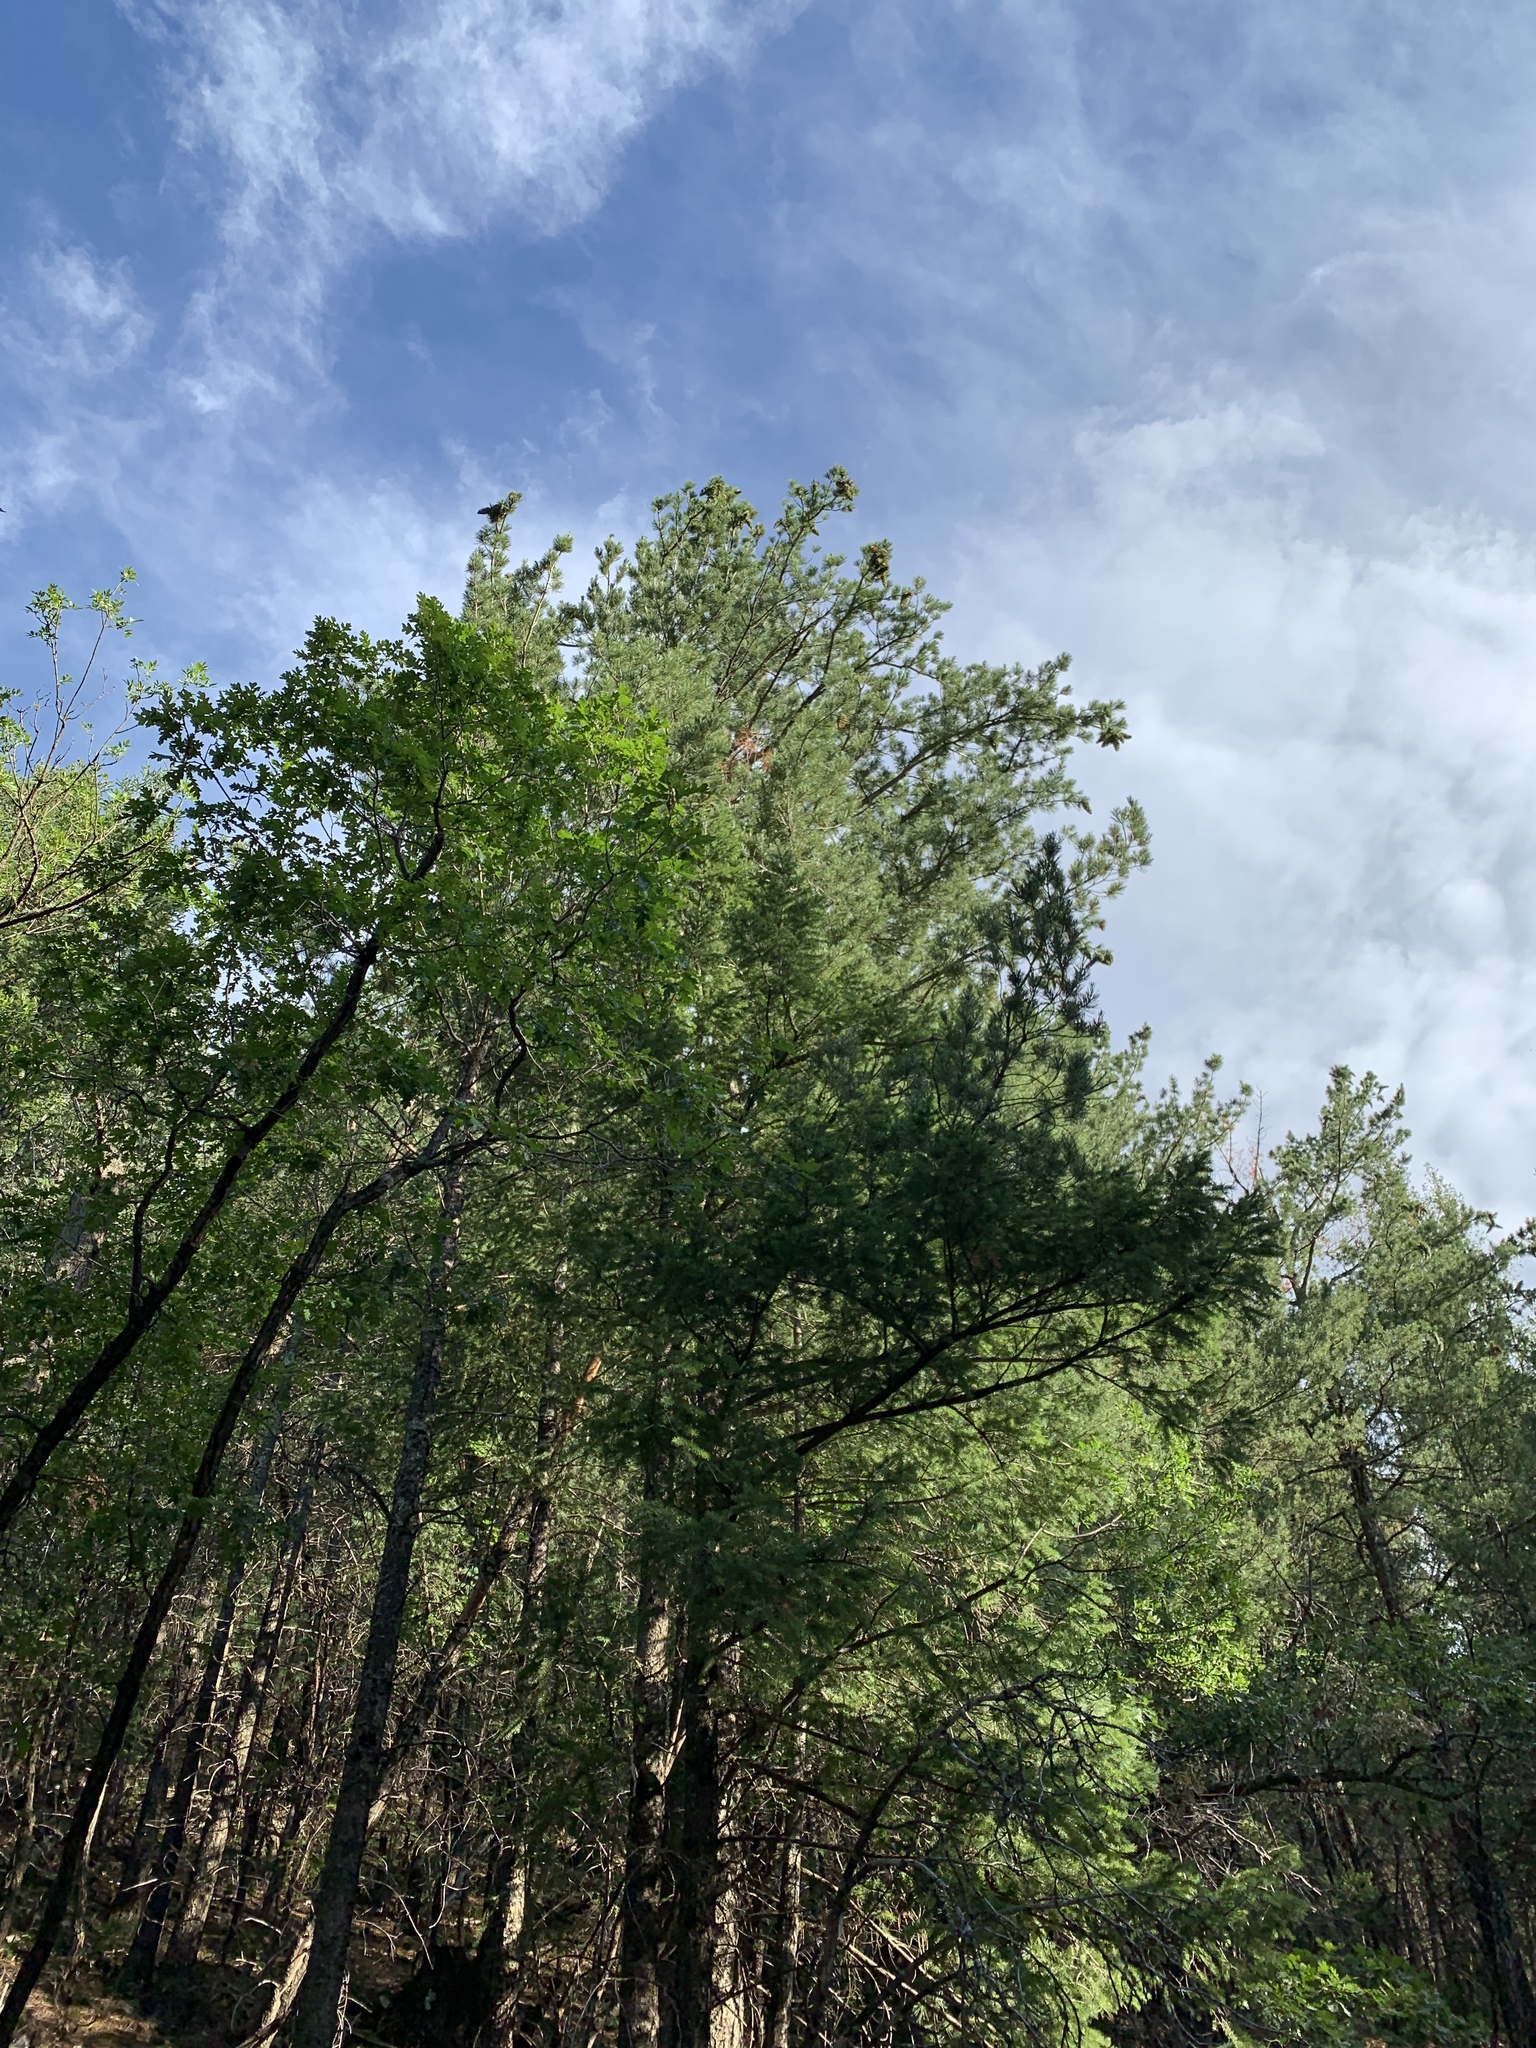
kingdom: Plantae
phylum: Tracheophyta
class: Pinopsida
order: Pinales
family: Pinaceae
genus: Pinus
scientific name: Pinus strobiformis
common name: Southwestern white pine
